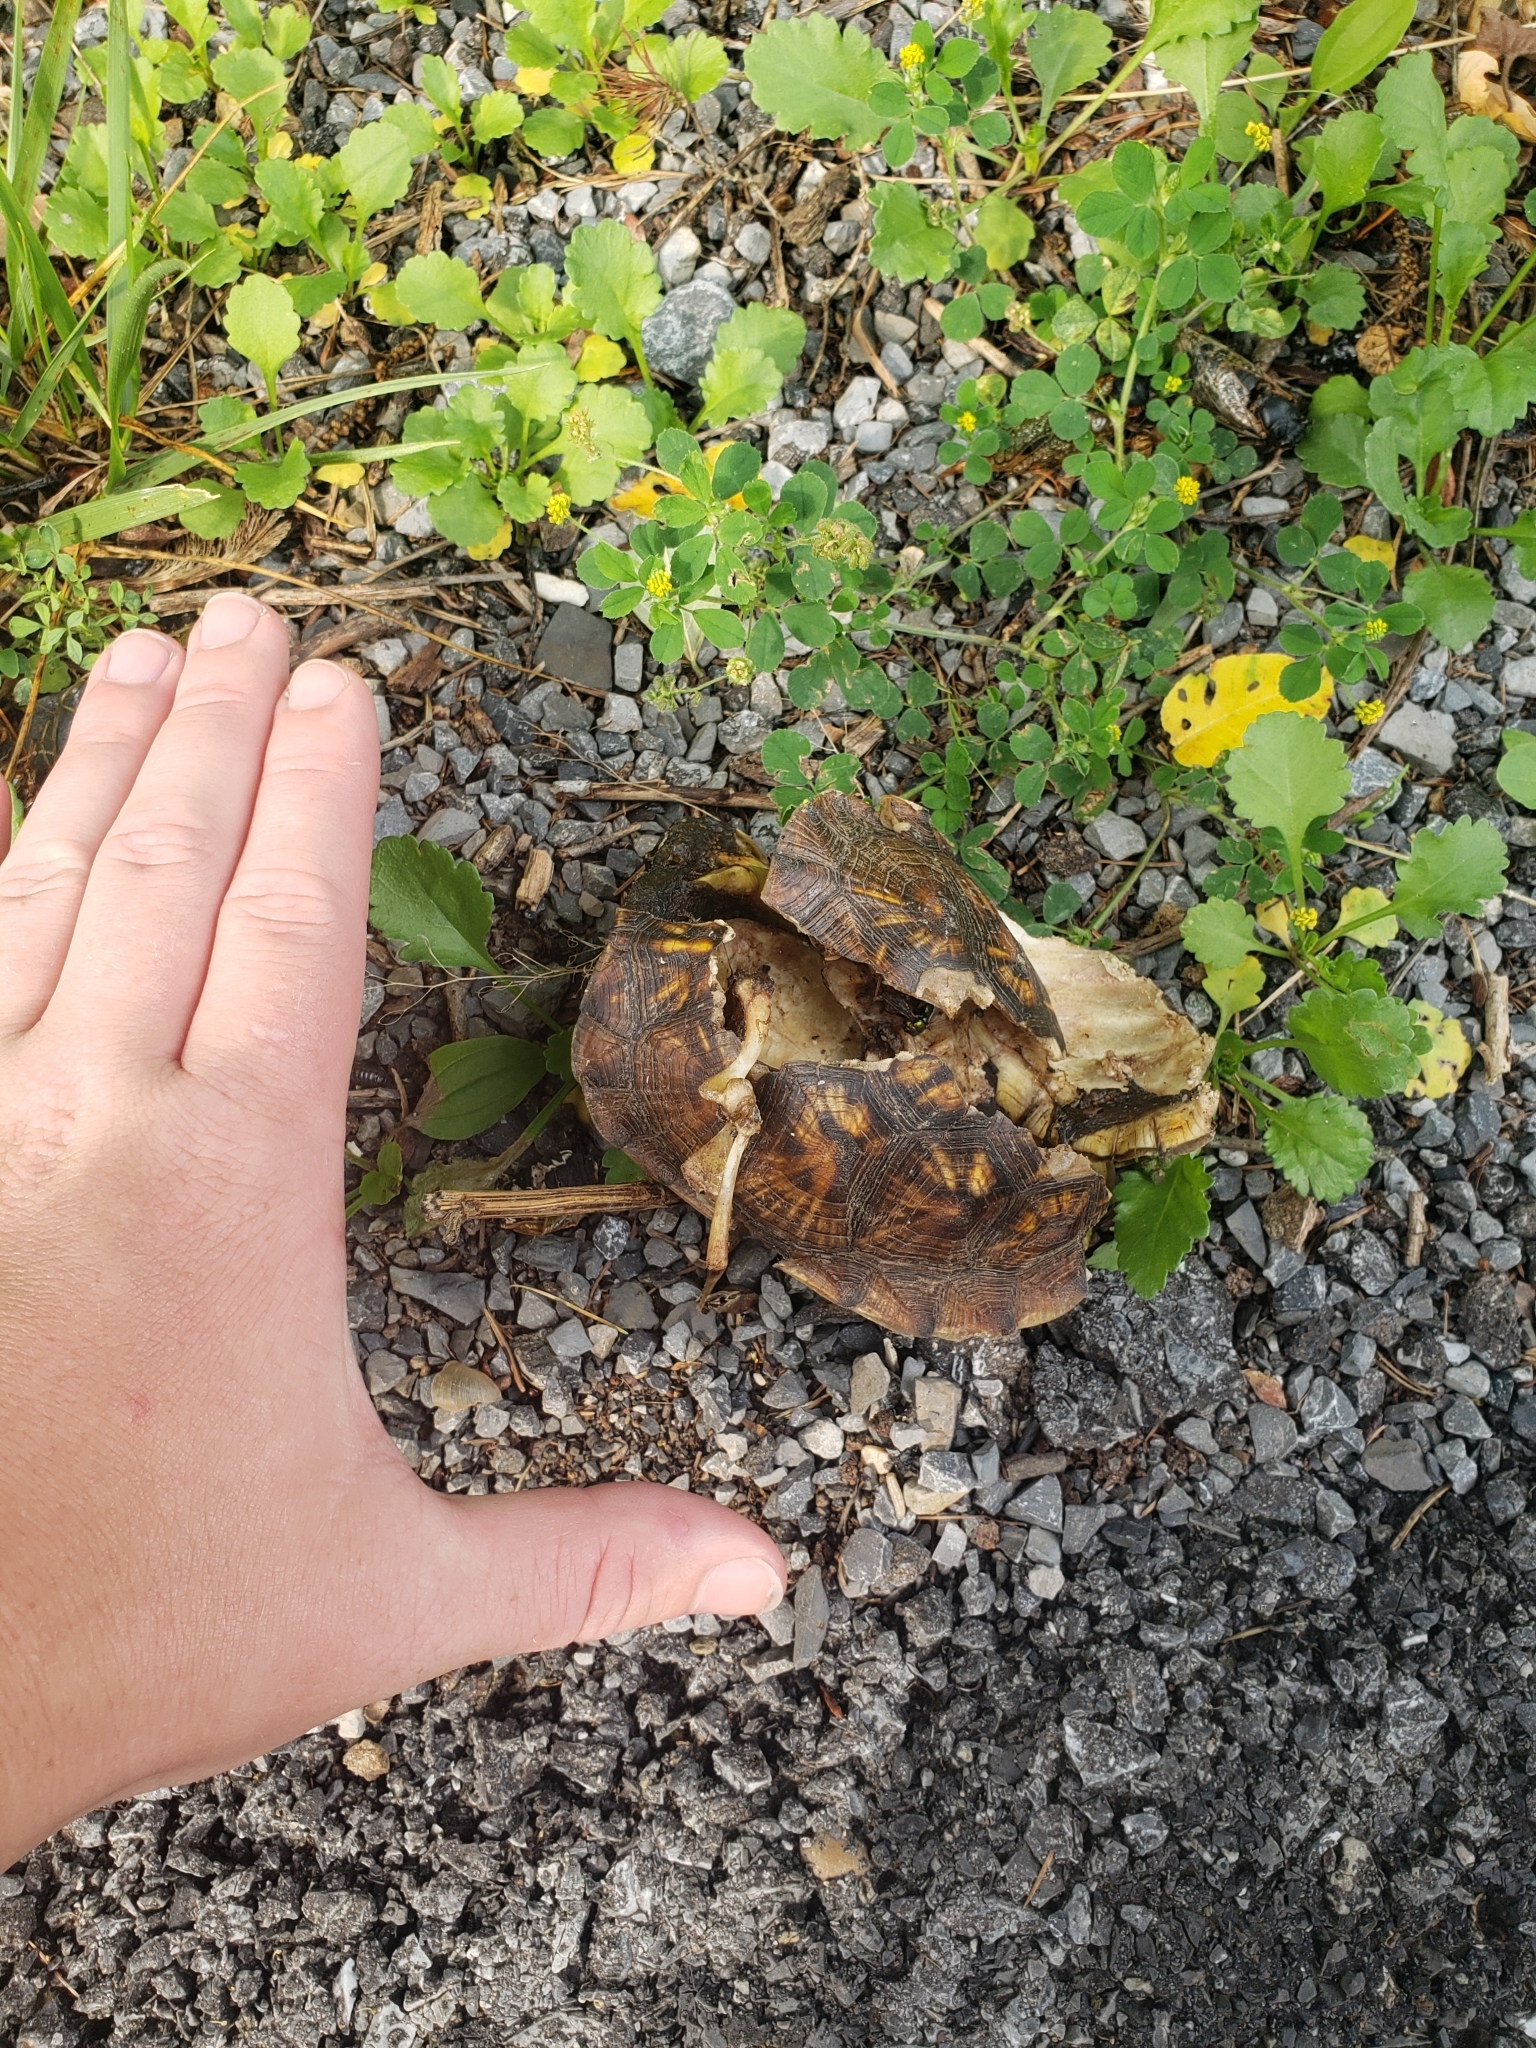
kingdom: Animalia
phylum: Chordata
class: Testudines
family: Emydidae
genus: Terrapene
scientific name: Terrapene carolina
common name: Common box turtle
